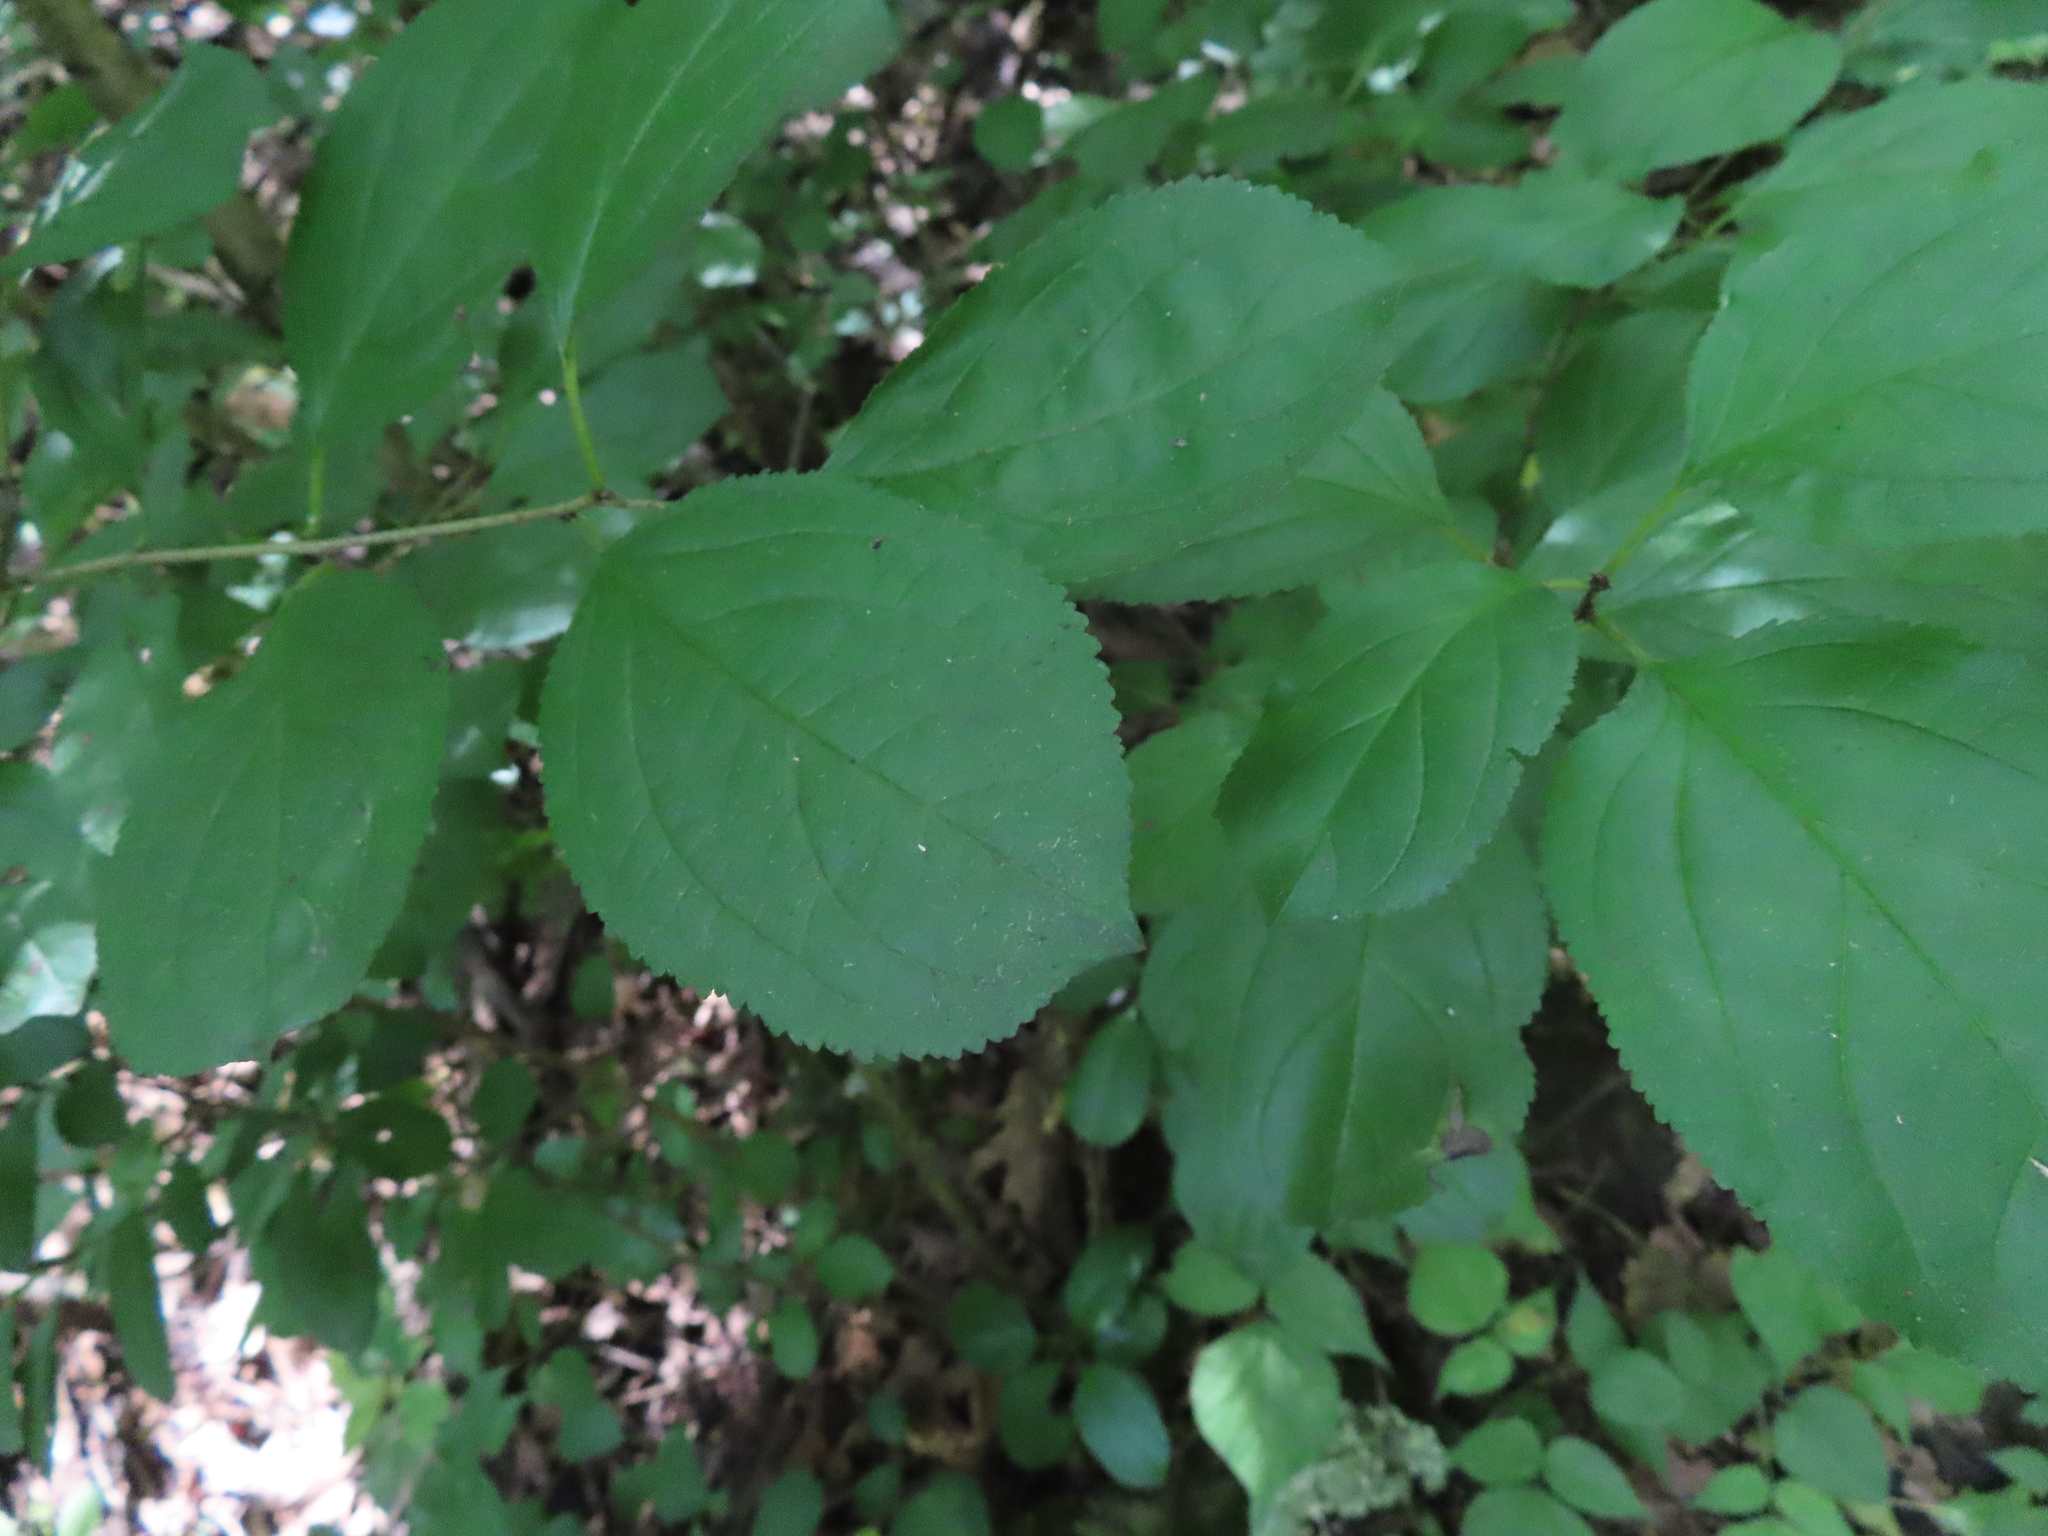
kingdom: Plantae
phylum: Tracheophyta
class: Magnoliopsida
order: Rosales
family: Rhamnaceae
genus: Rhamnus
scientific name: Rhamnus cathartica
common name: Common buckthorn
